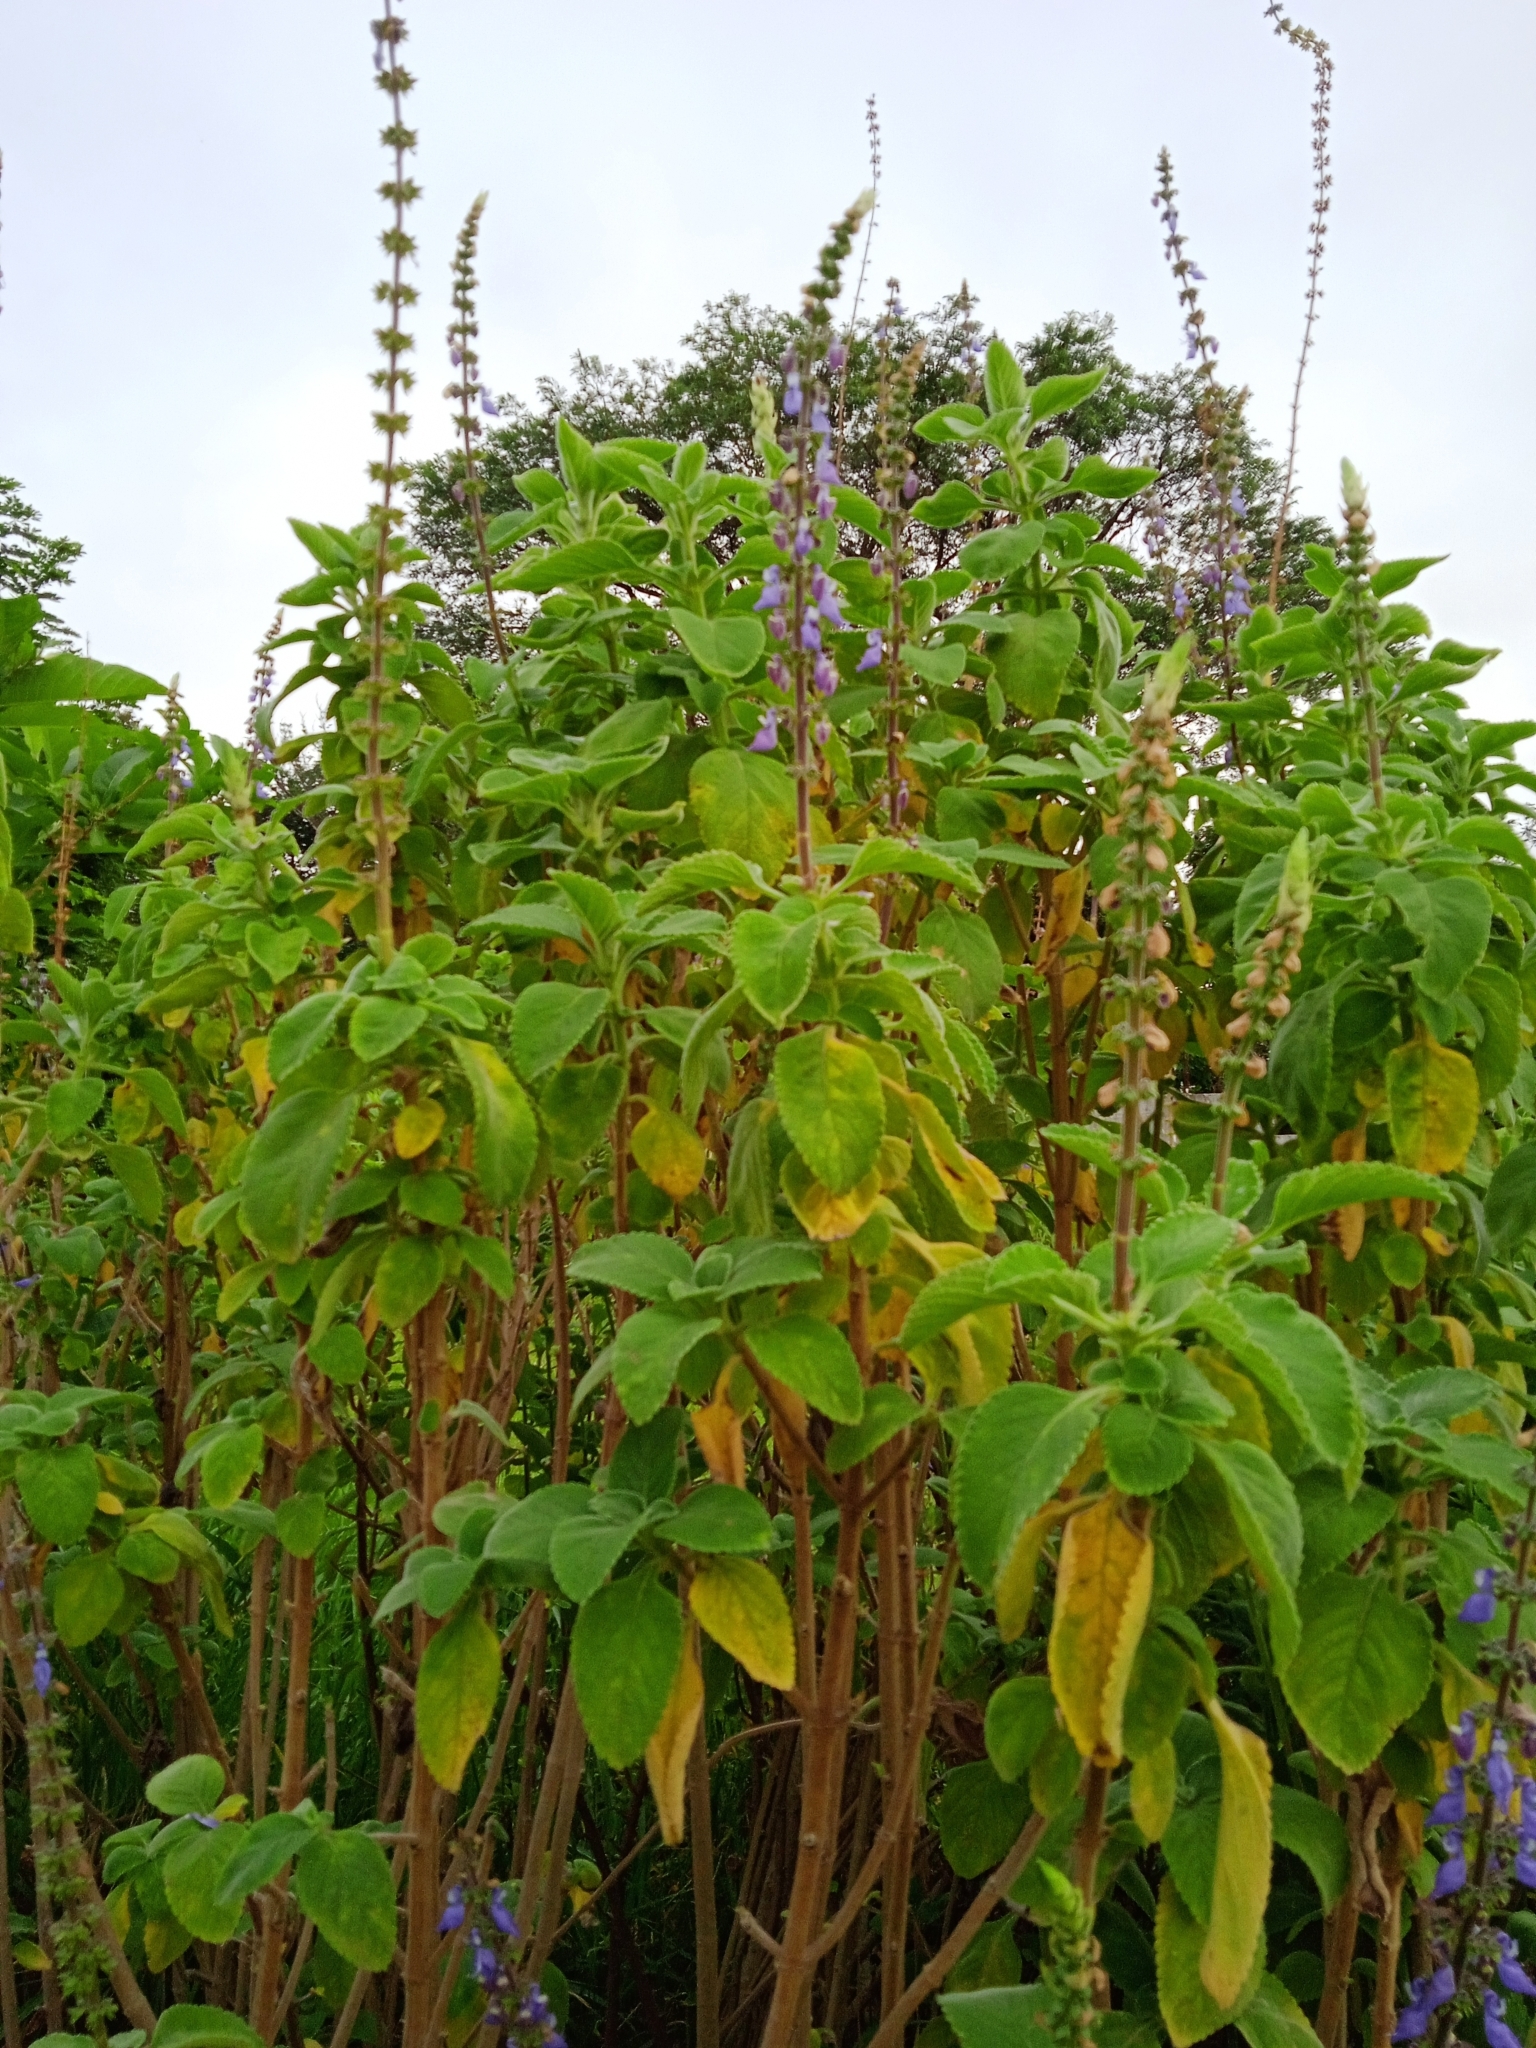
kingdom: Plantae
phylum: Tracheophyta
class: Magnoliopsida
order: Lamiales
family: Lamiaceae
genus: Coleus
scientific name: Coleus barbatus
